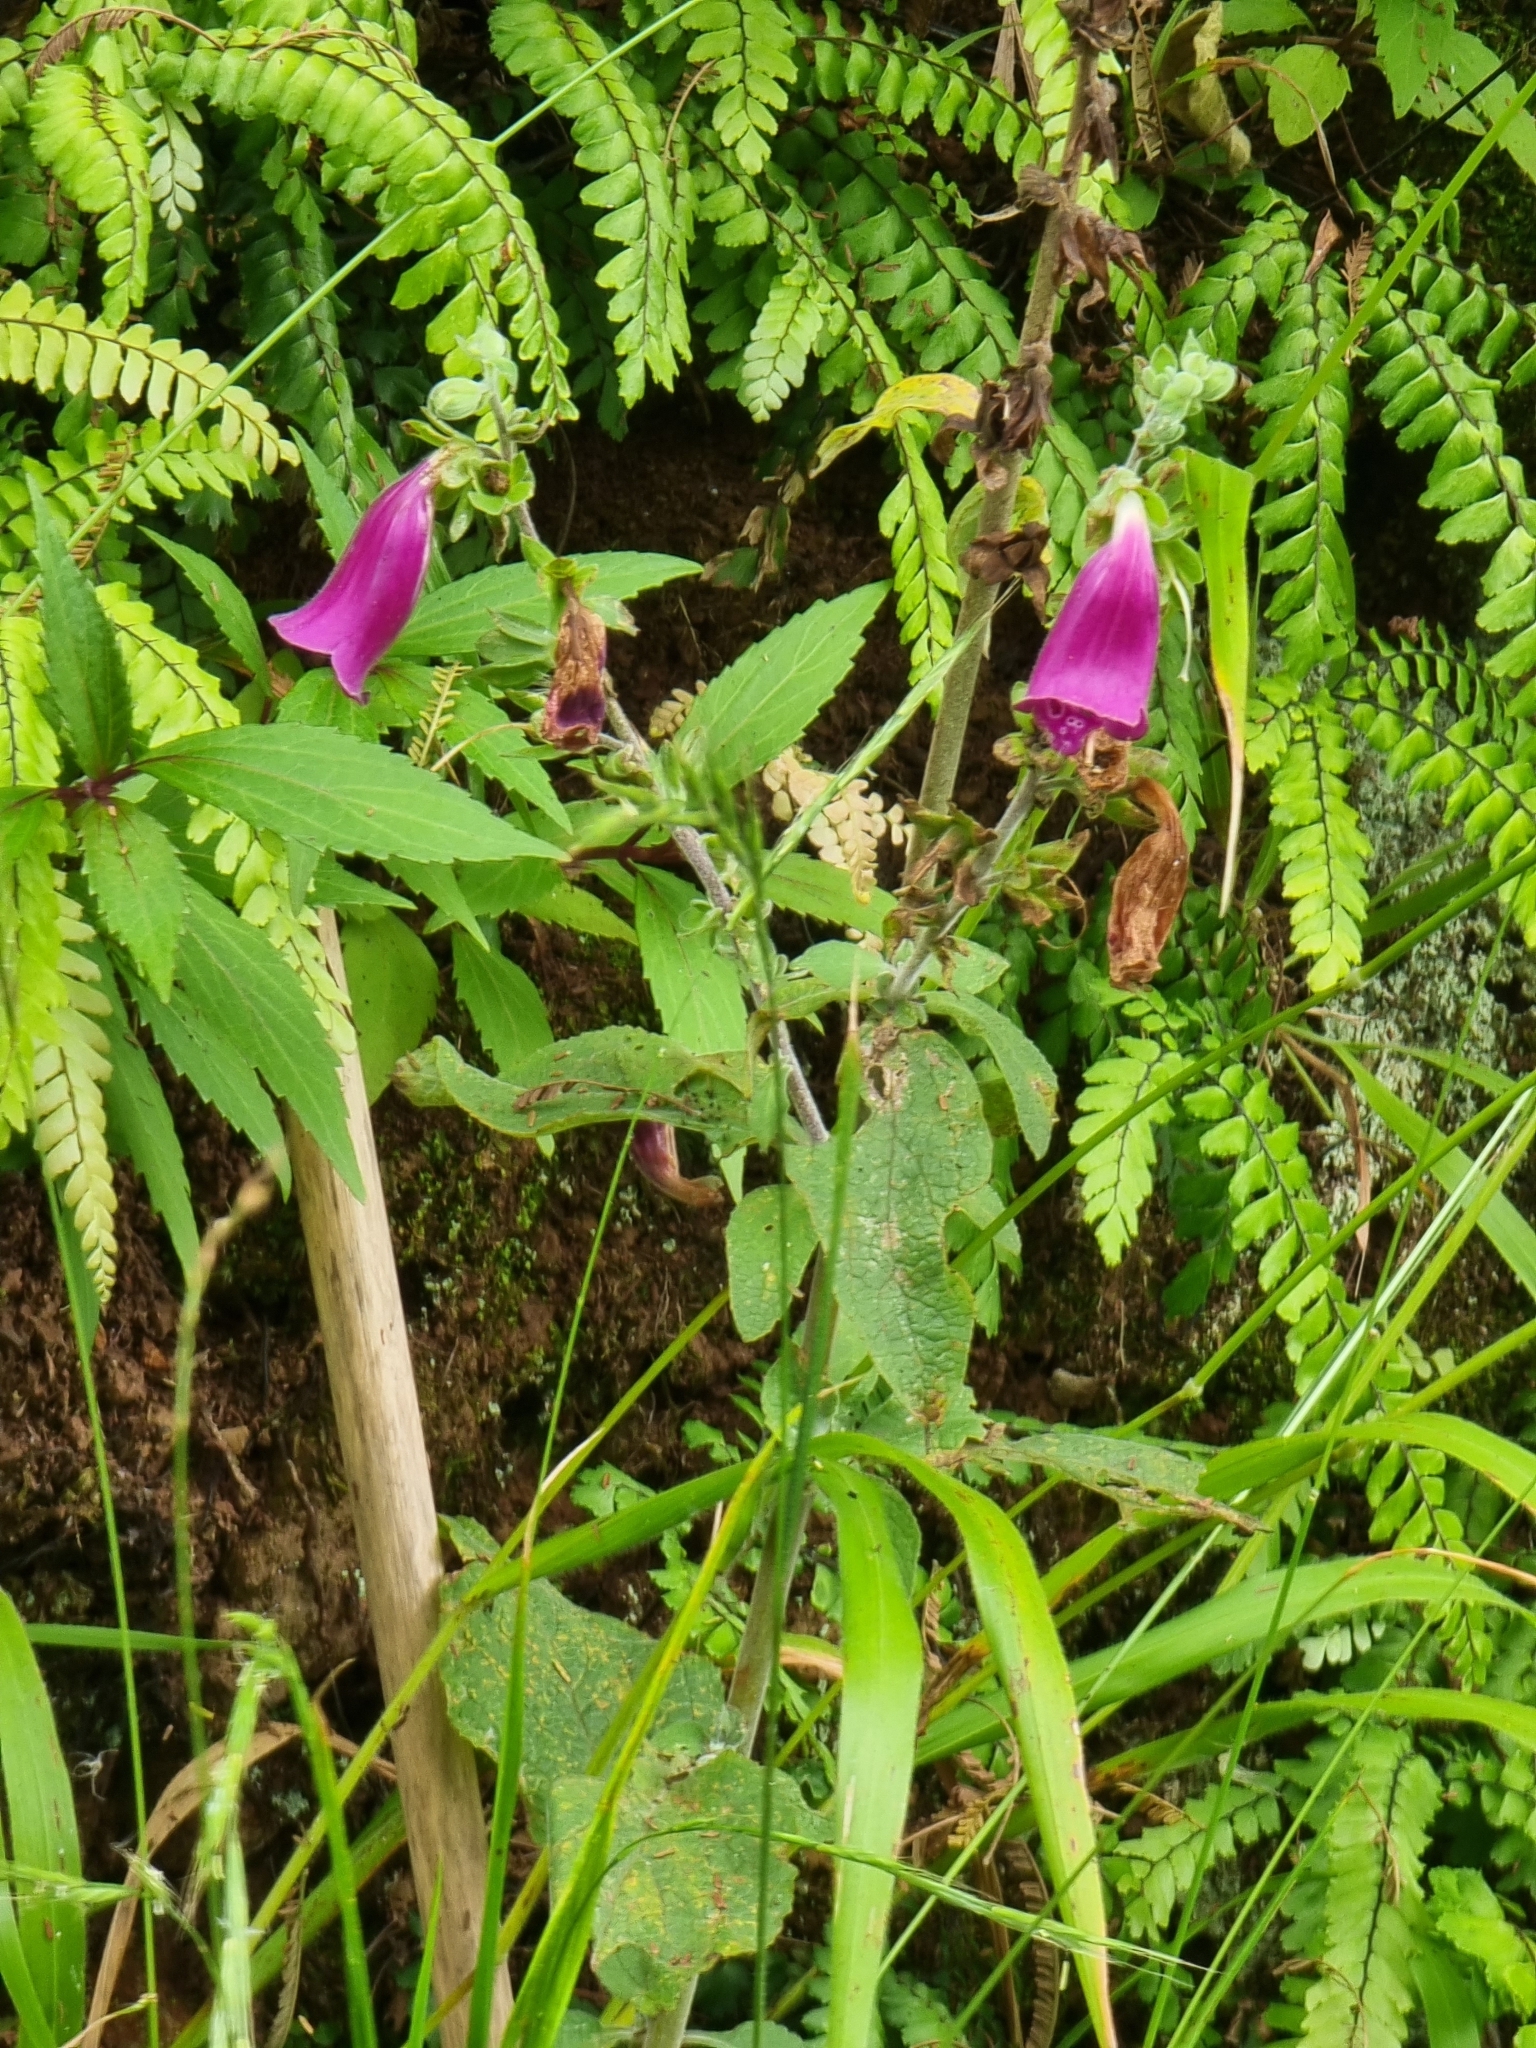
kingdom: Plantae
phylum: Tracheophyta
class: Magnoliopsida
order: Lamiales
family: Plantaginaceae
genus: Digitalis
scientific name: Digitalis purpurea
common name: Foxglove
